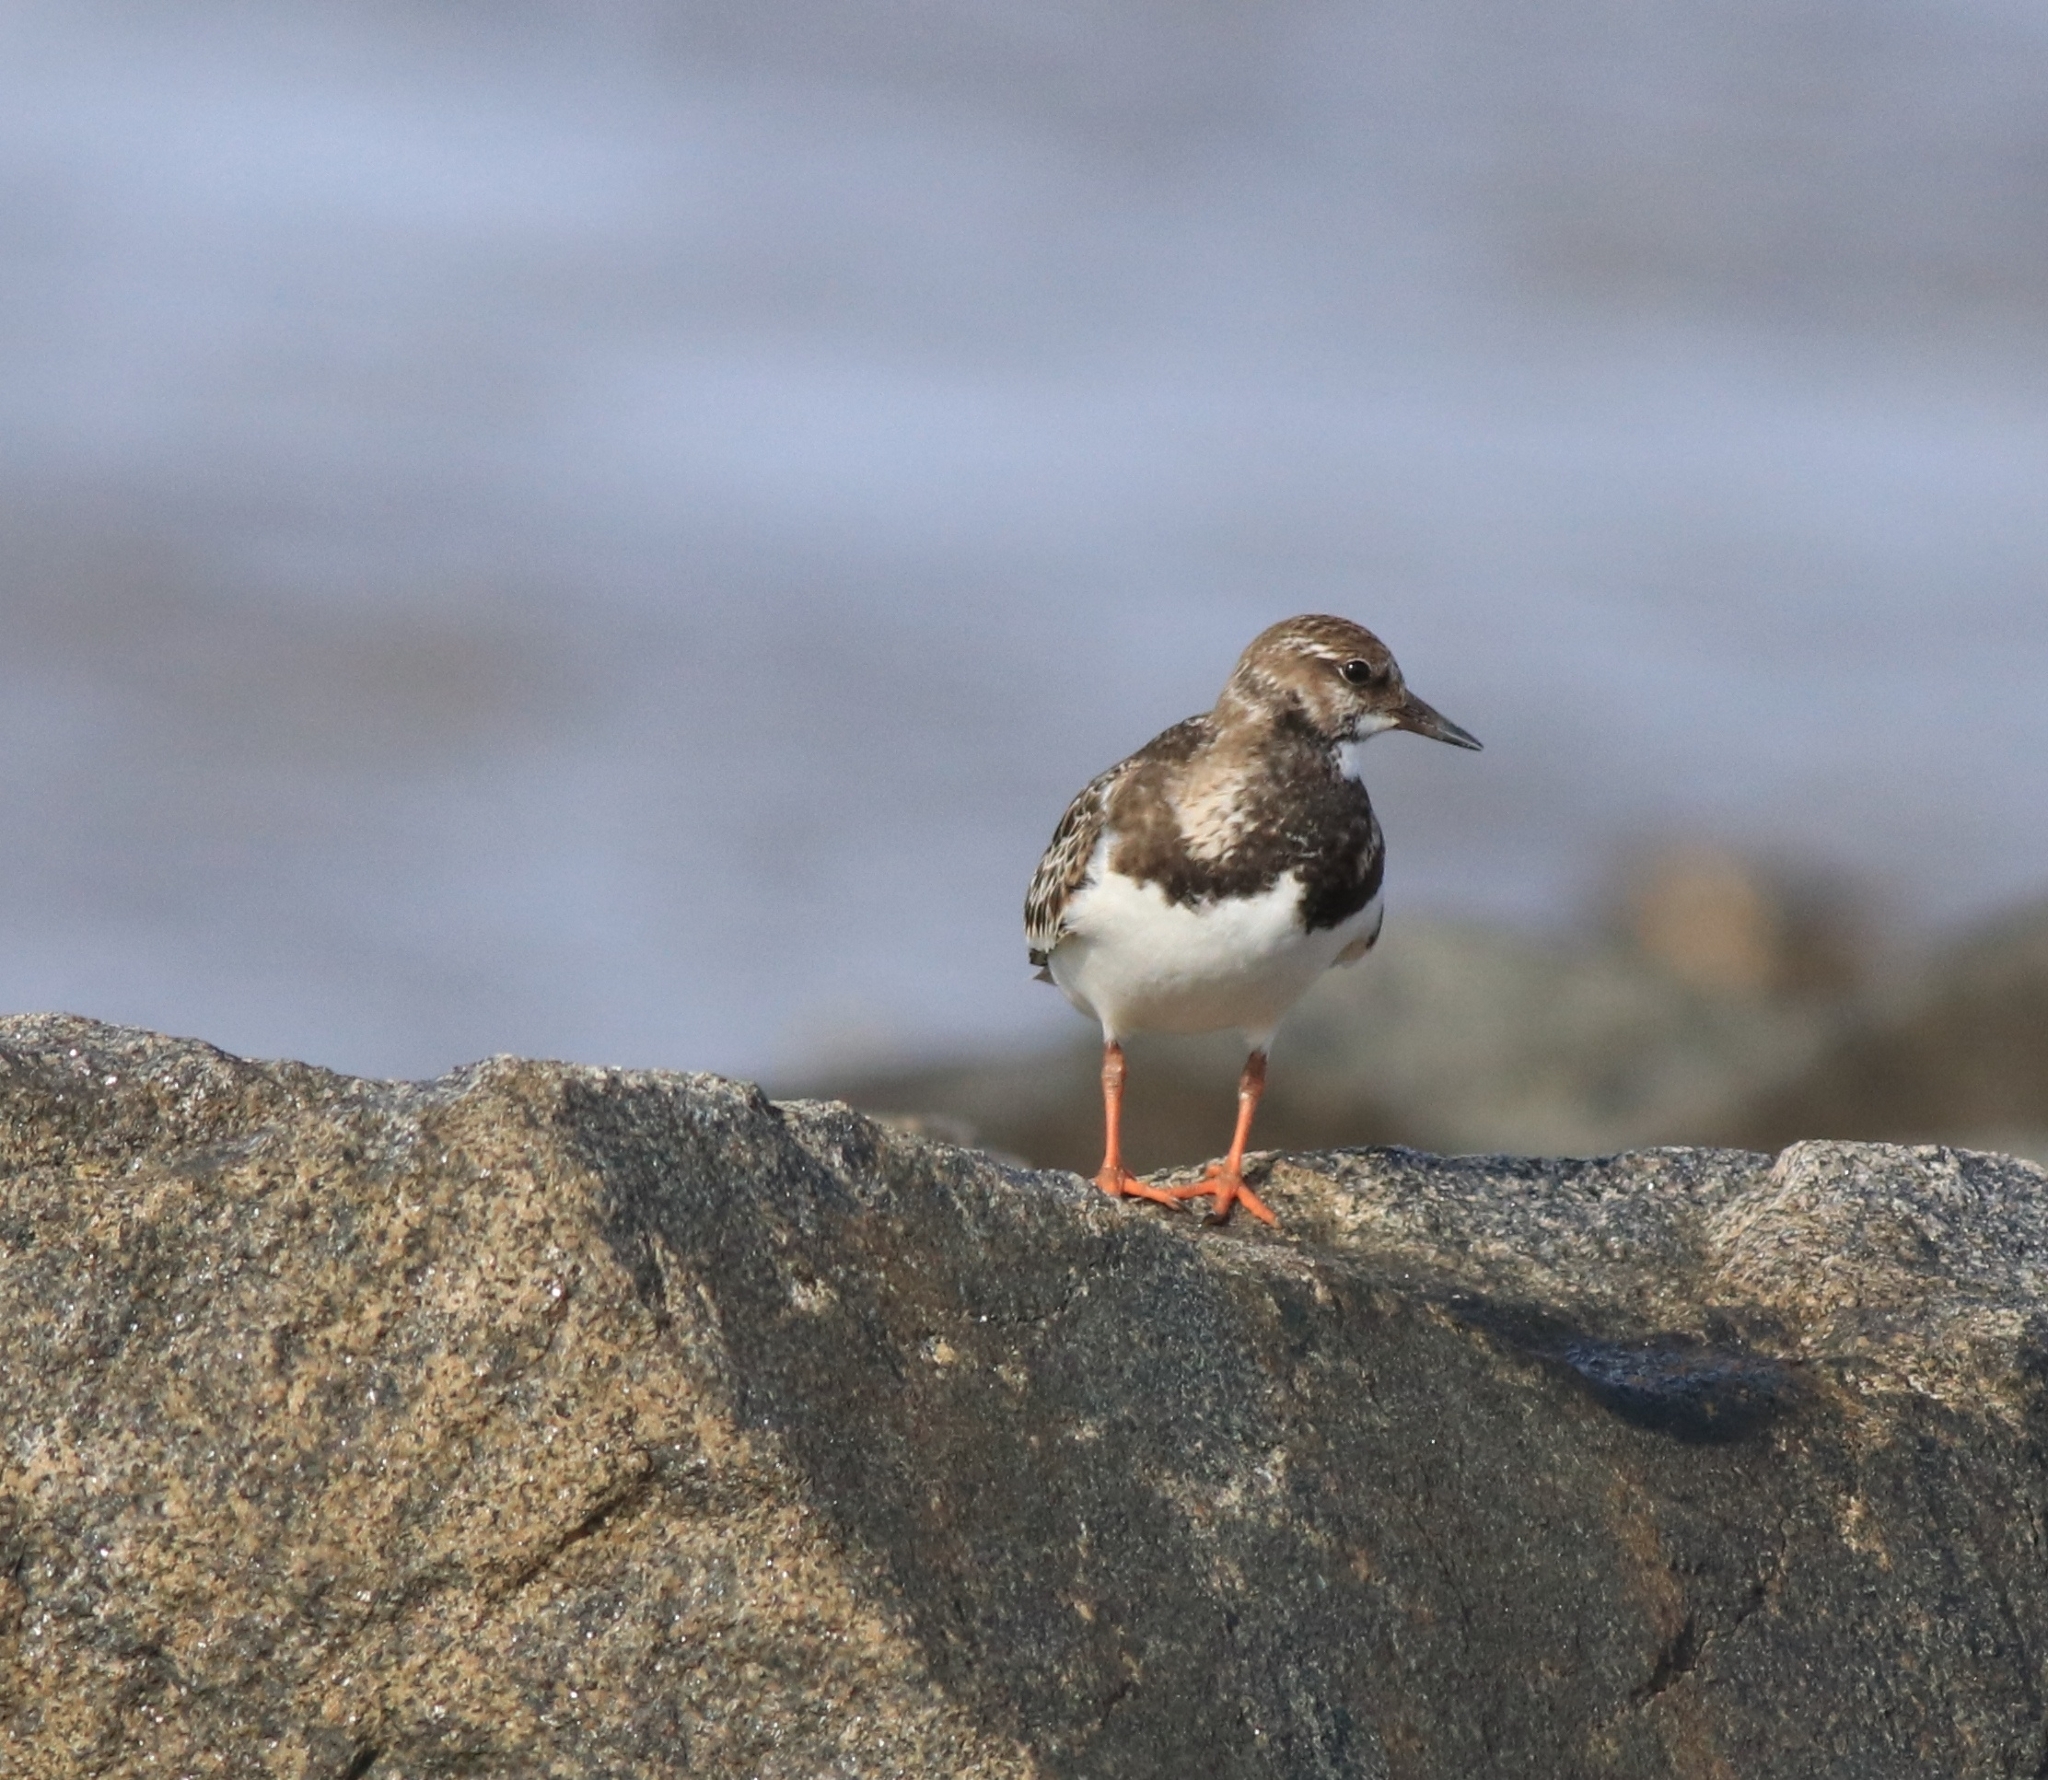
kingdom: Animalia
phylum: Chordata
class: Aves
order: Charadriiformes
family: Scolopacidae
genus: Arenaria
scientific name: Arenaria interpres
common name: Ruddy turnstone
